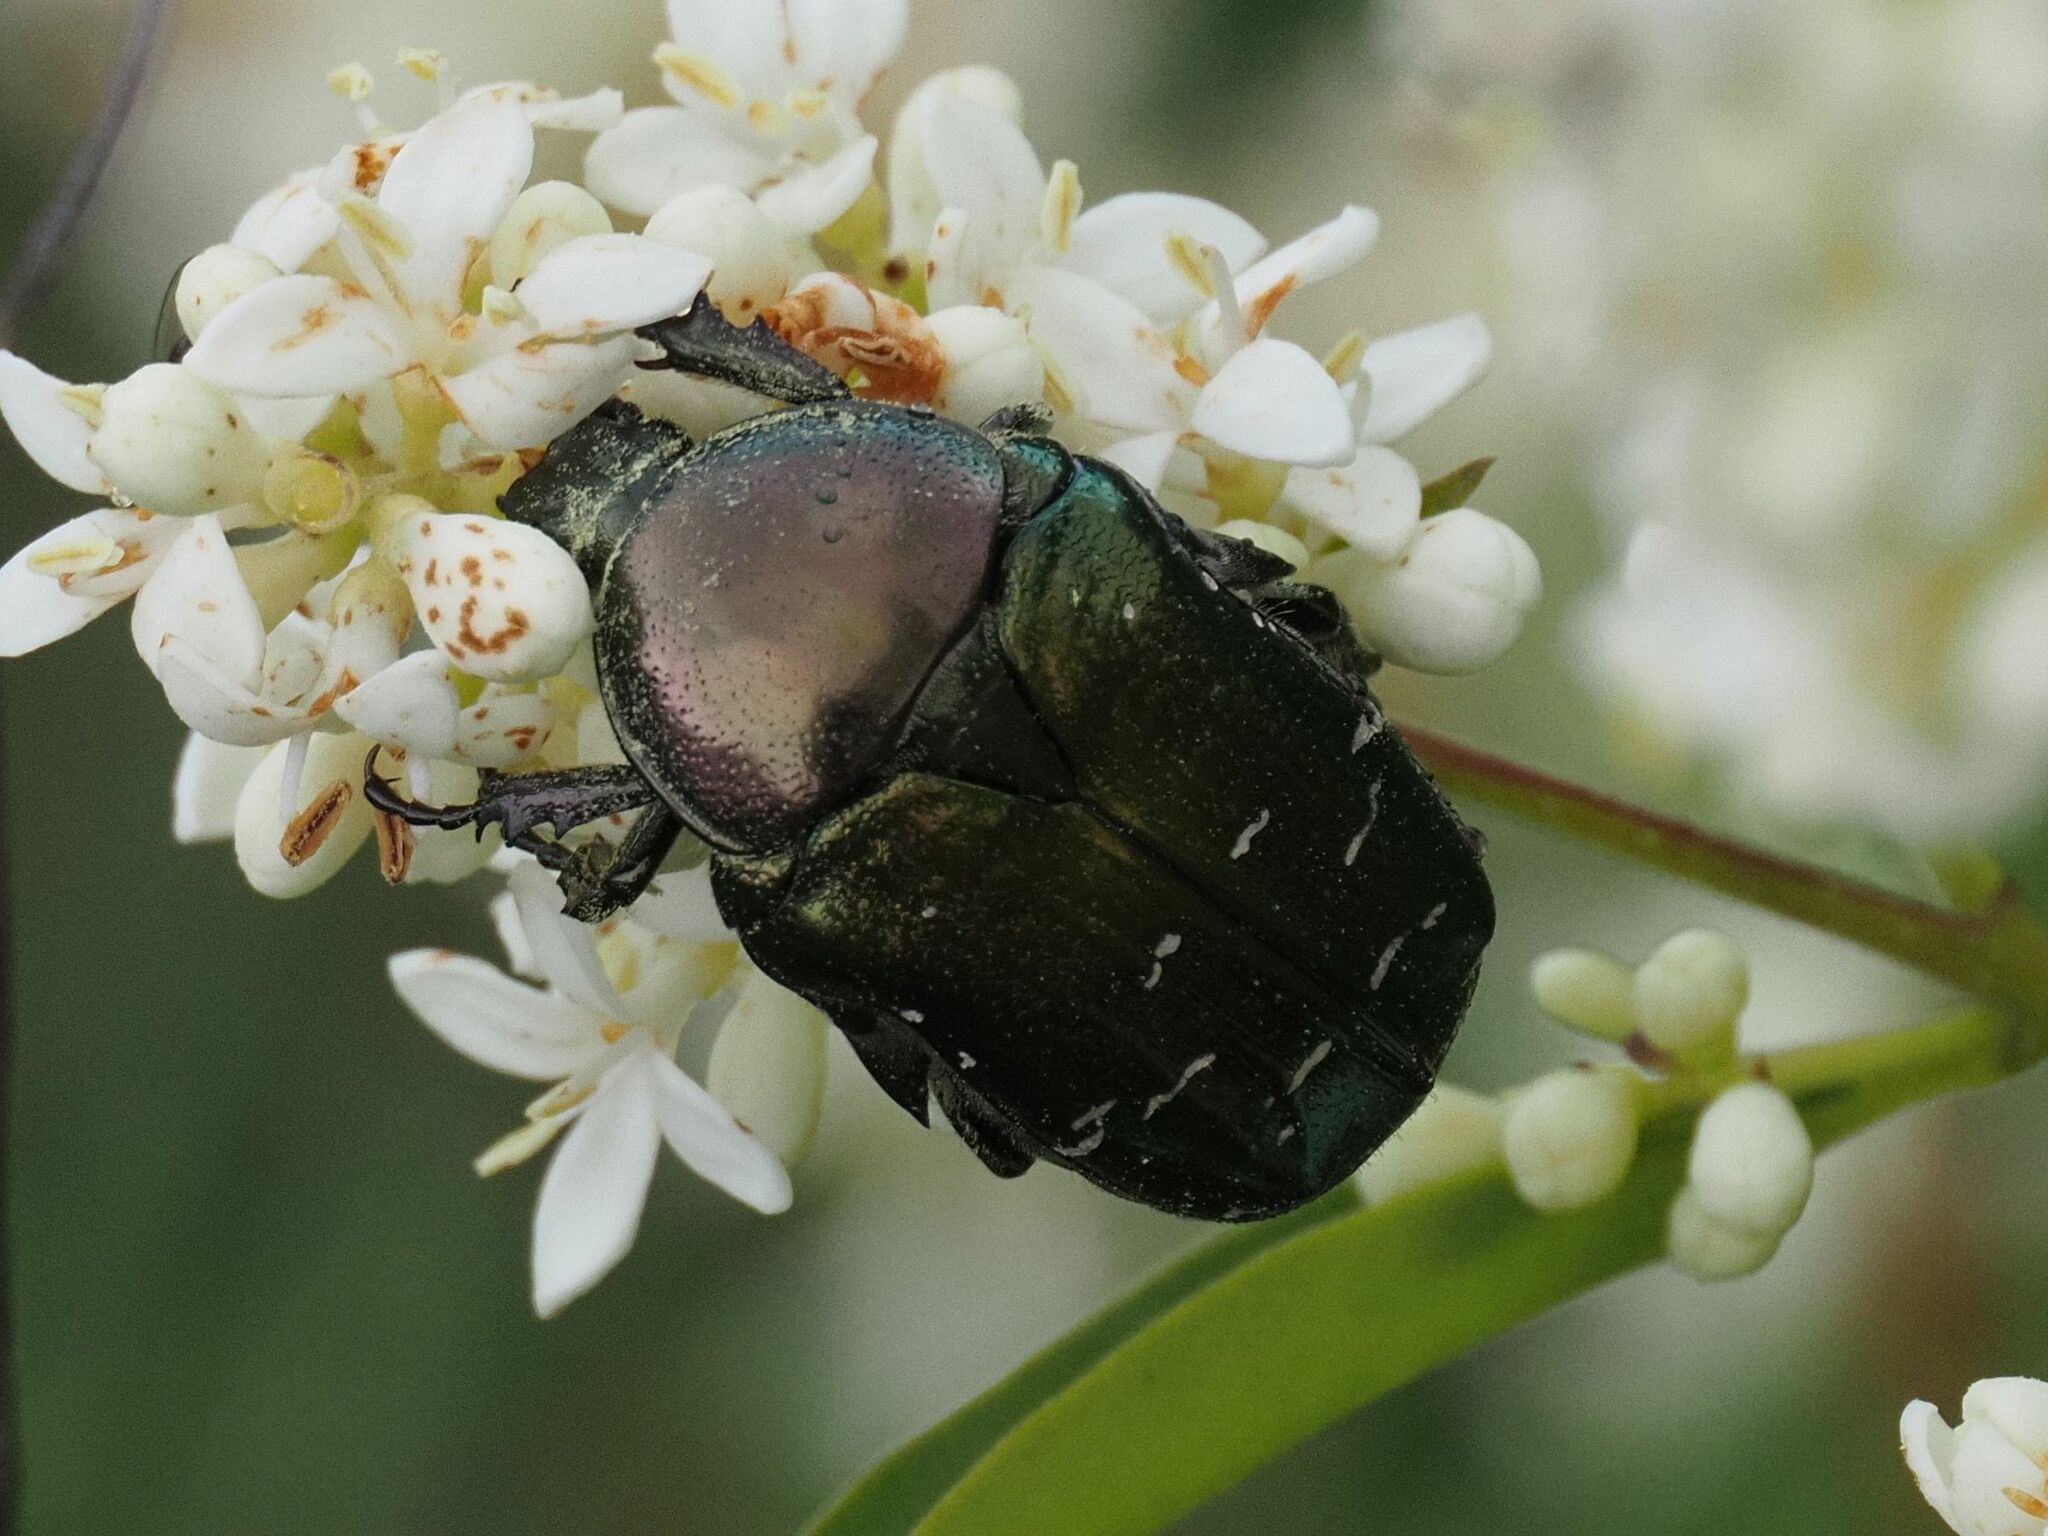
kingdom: Animalia
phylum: Arthropoda
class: Insecta
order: Coleoptera
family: Scarabaeidae
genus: Cetonia
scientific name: Cetonia aurata
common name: Rose chafer
